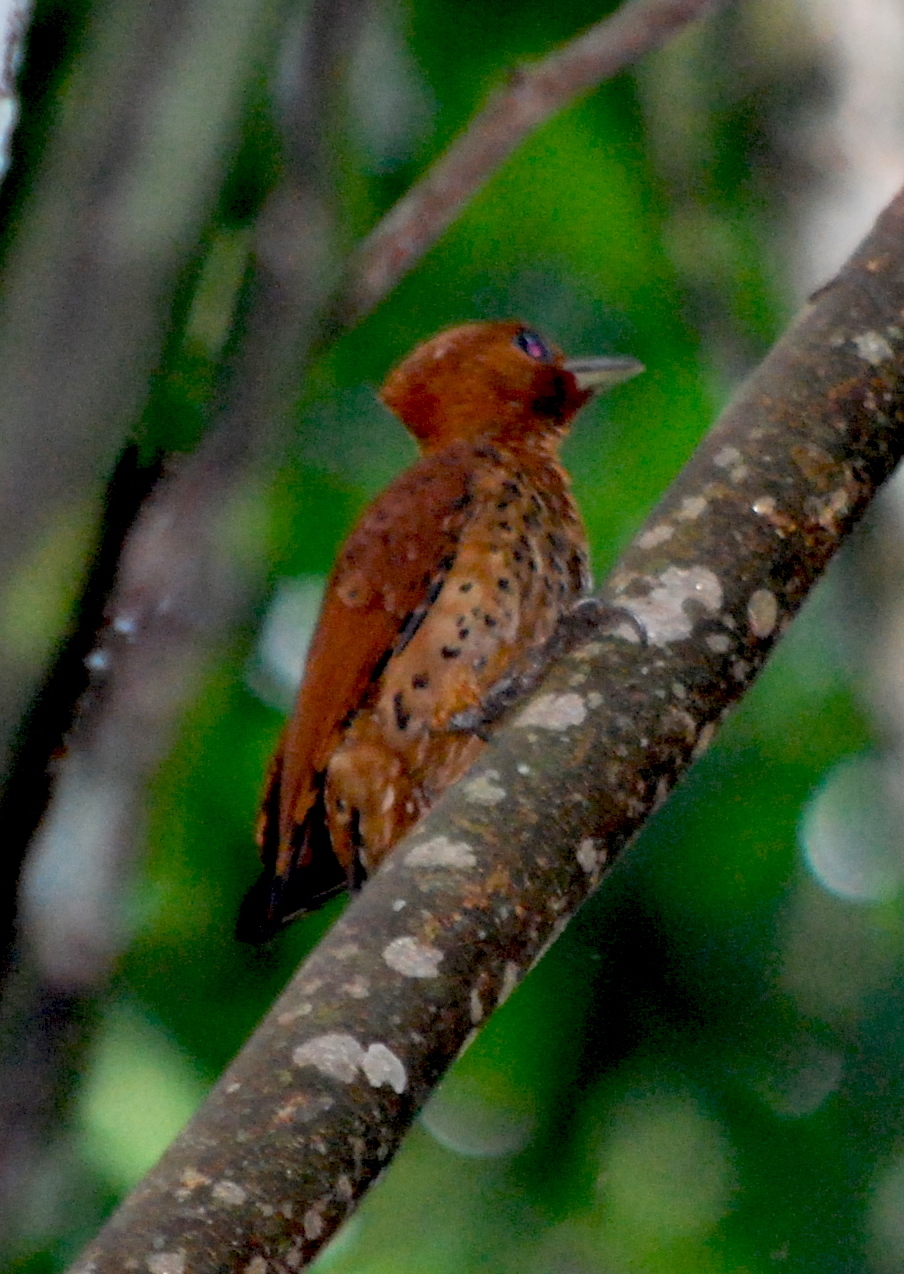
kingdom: Animalia
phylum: Chordata
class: Aves
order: Piciformes
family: Picidae
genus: Celeus
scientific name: Celeus loricatus
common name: Cinnamon woodpecker
